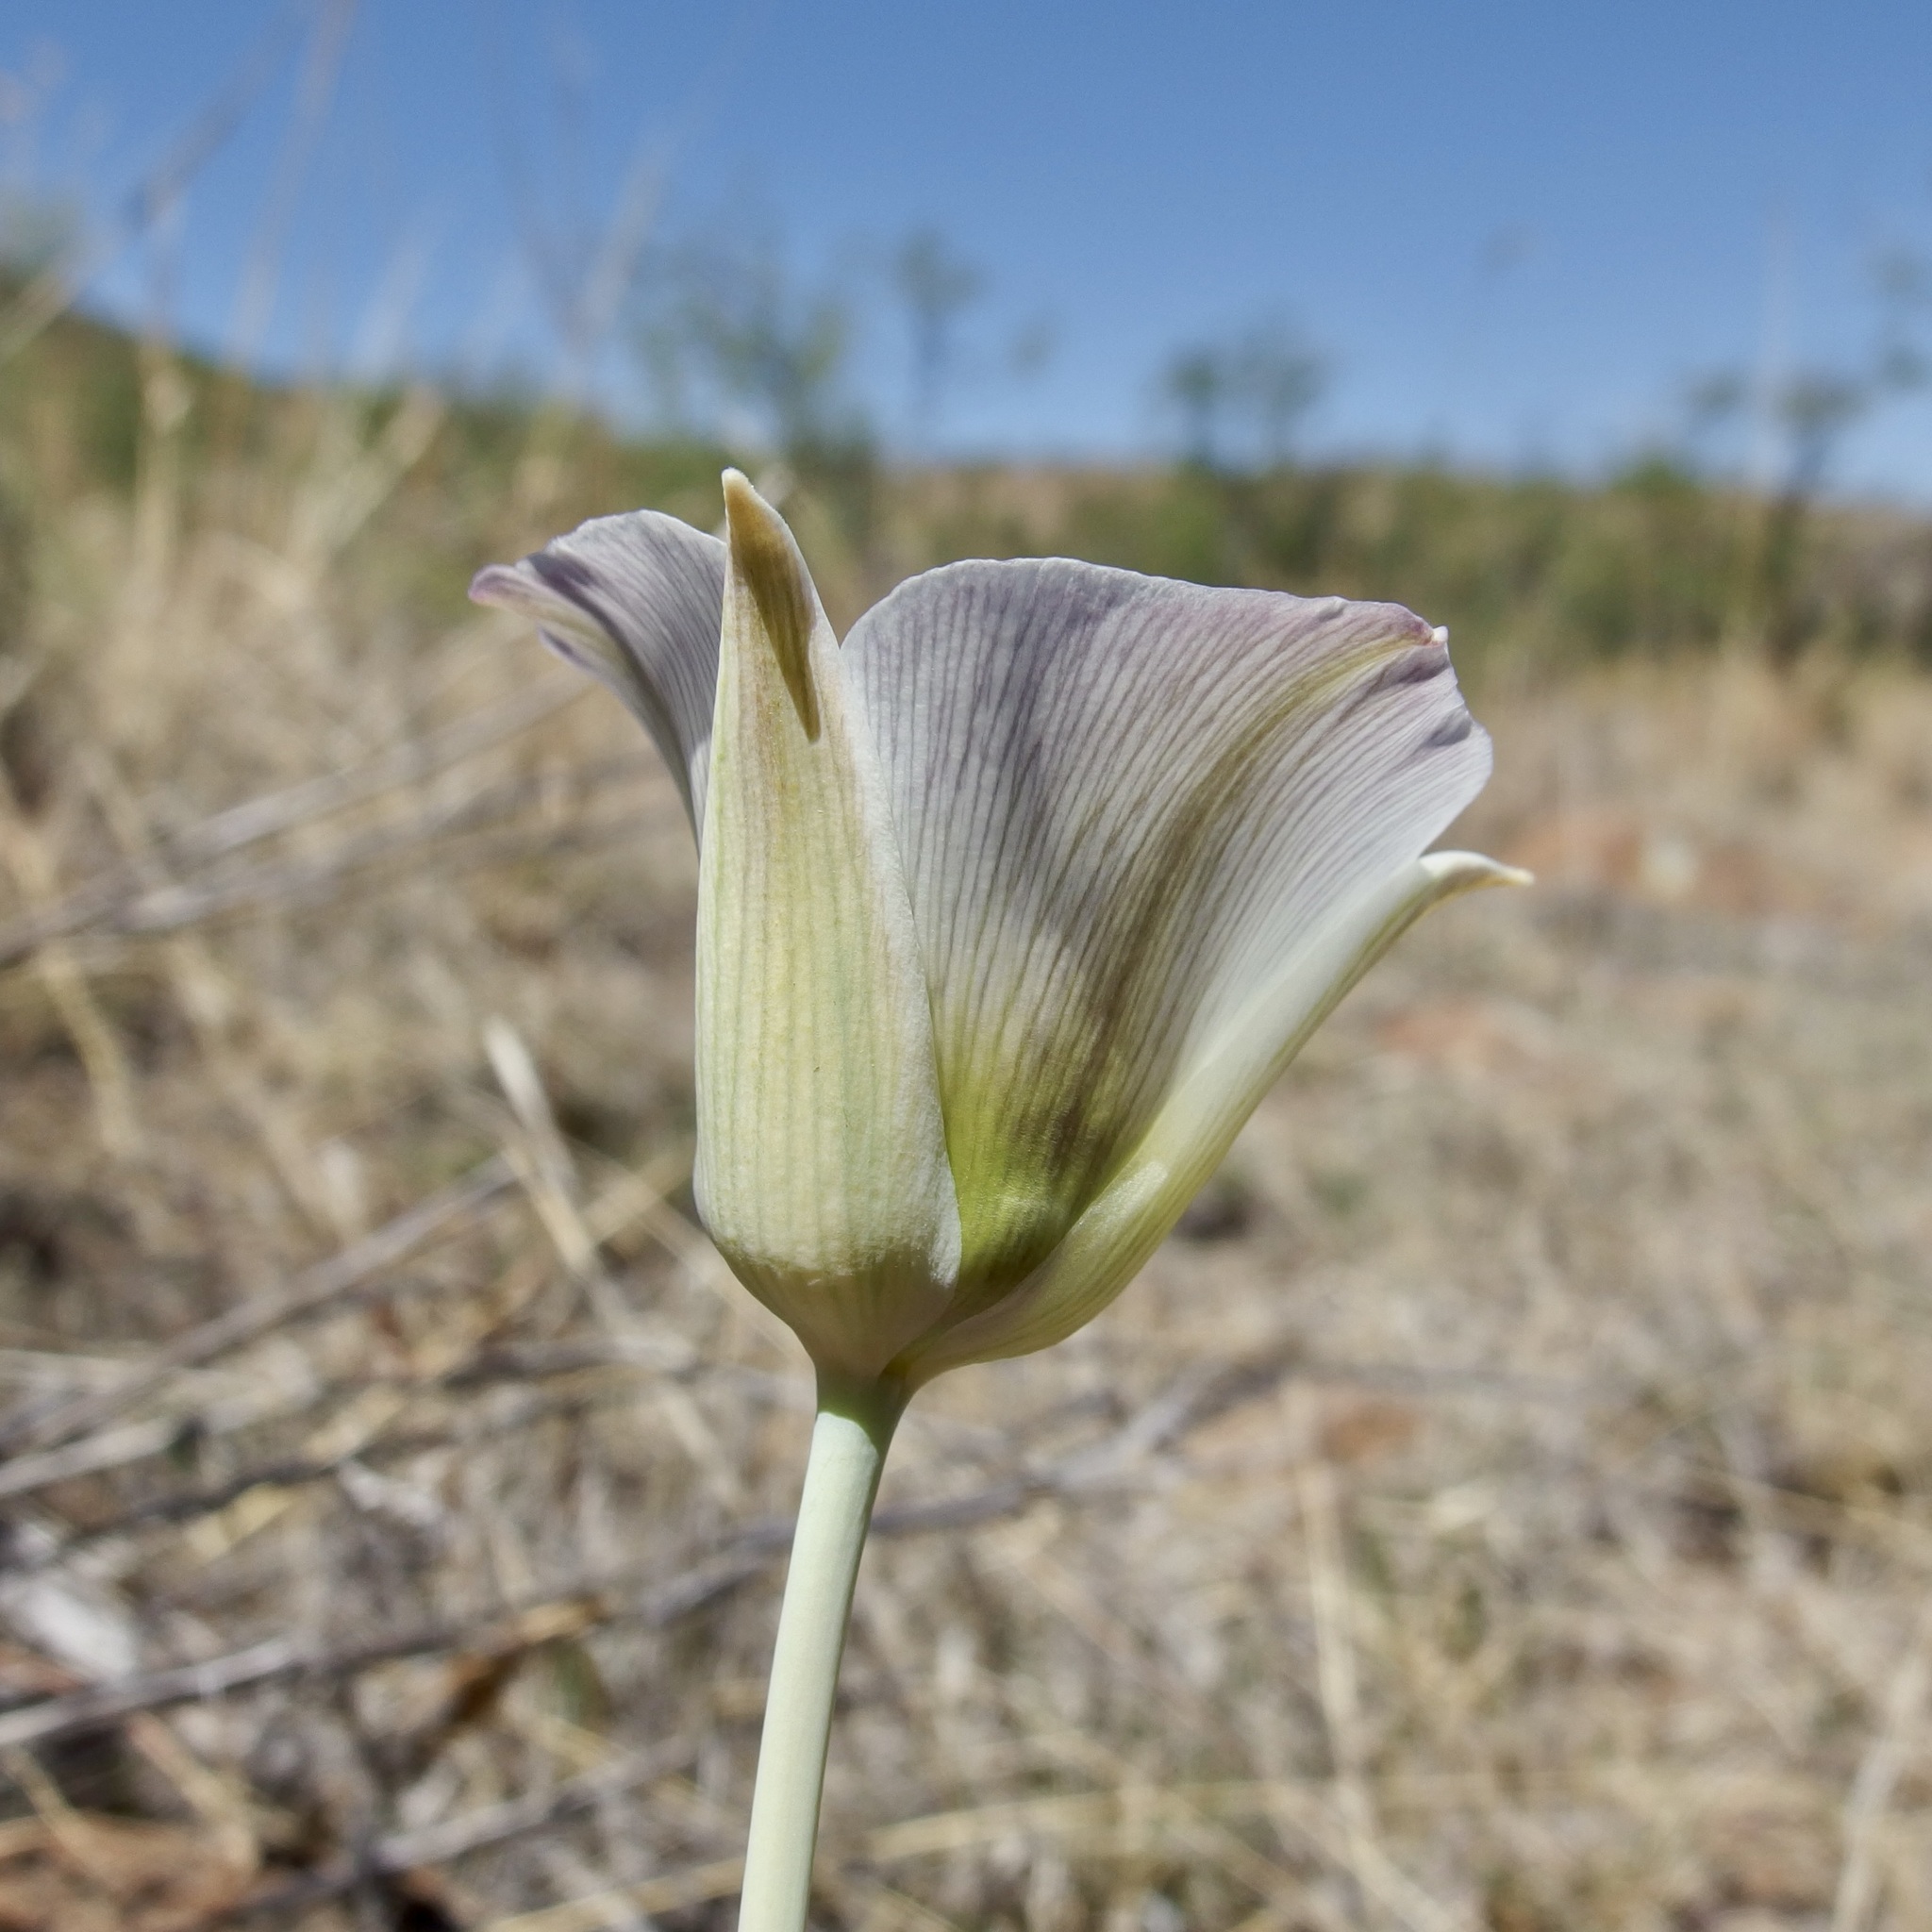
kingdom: Plantae
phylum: Tracheophyta
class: Liliopsida
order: Liliales
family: Liliaceae
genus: Calochortus
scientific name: Calochortus ambiguus
